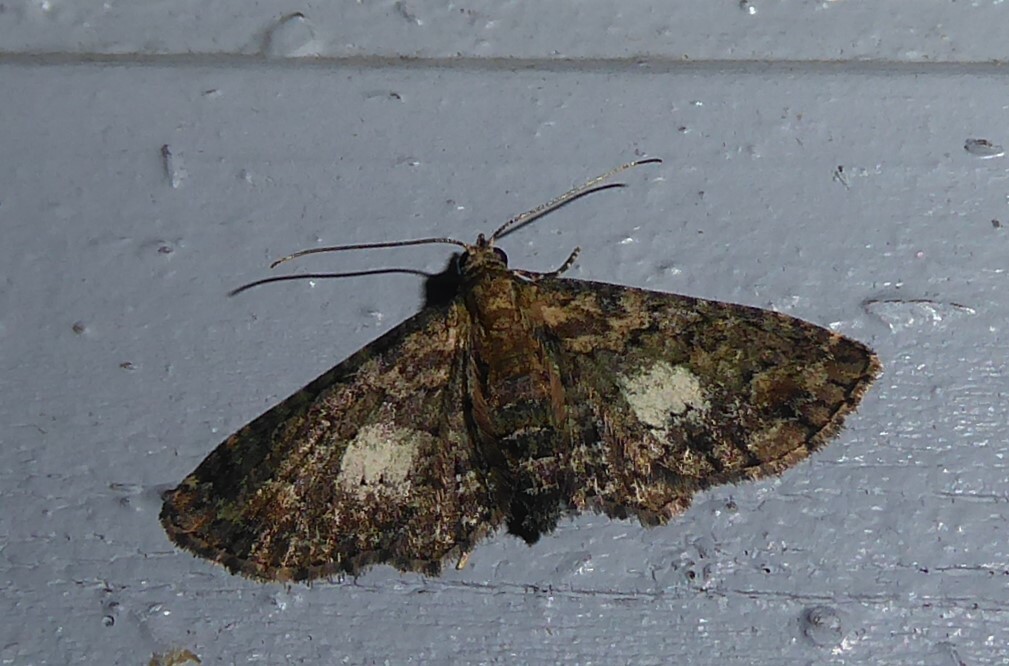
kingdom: Animalia
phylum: Arthropoda
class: Insecta
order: Lepidoptera
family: Geometridae
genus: Pasiphilodes
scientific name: Pasiphilodes testulata
